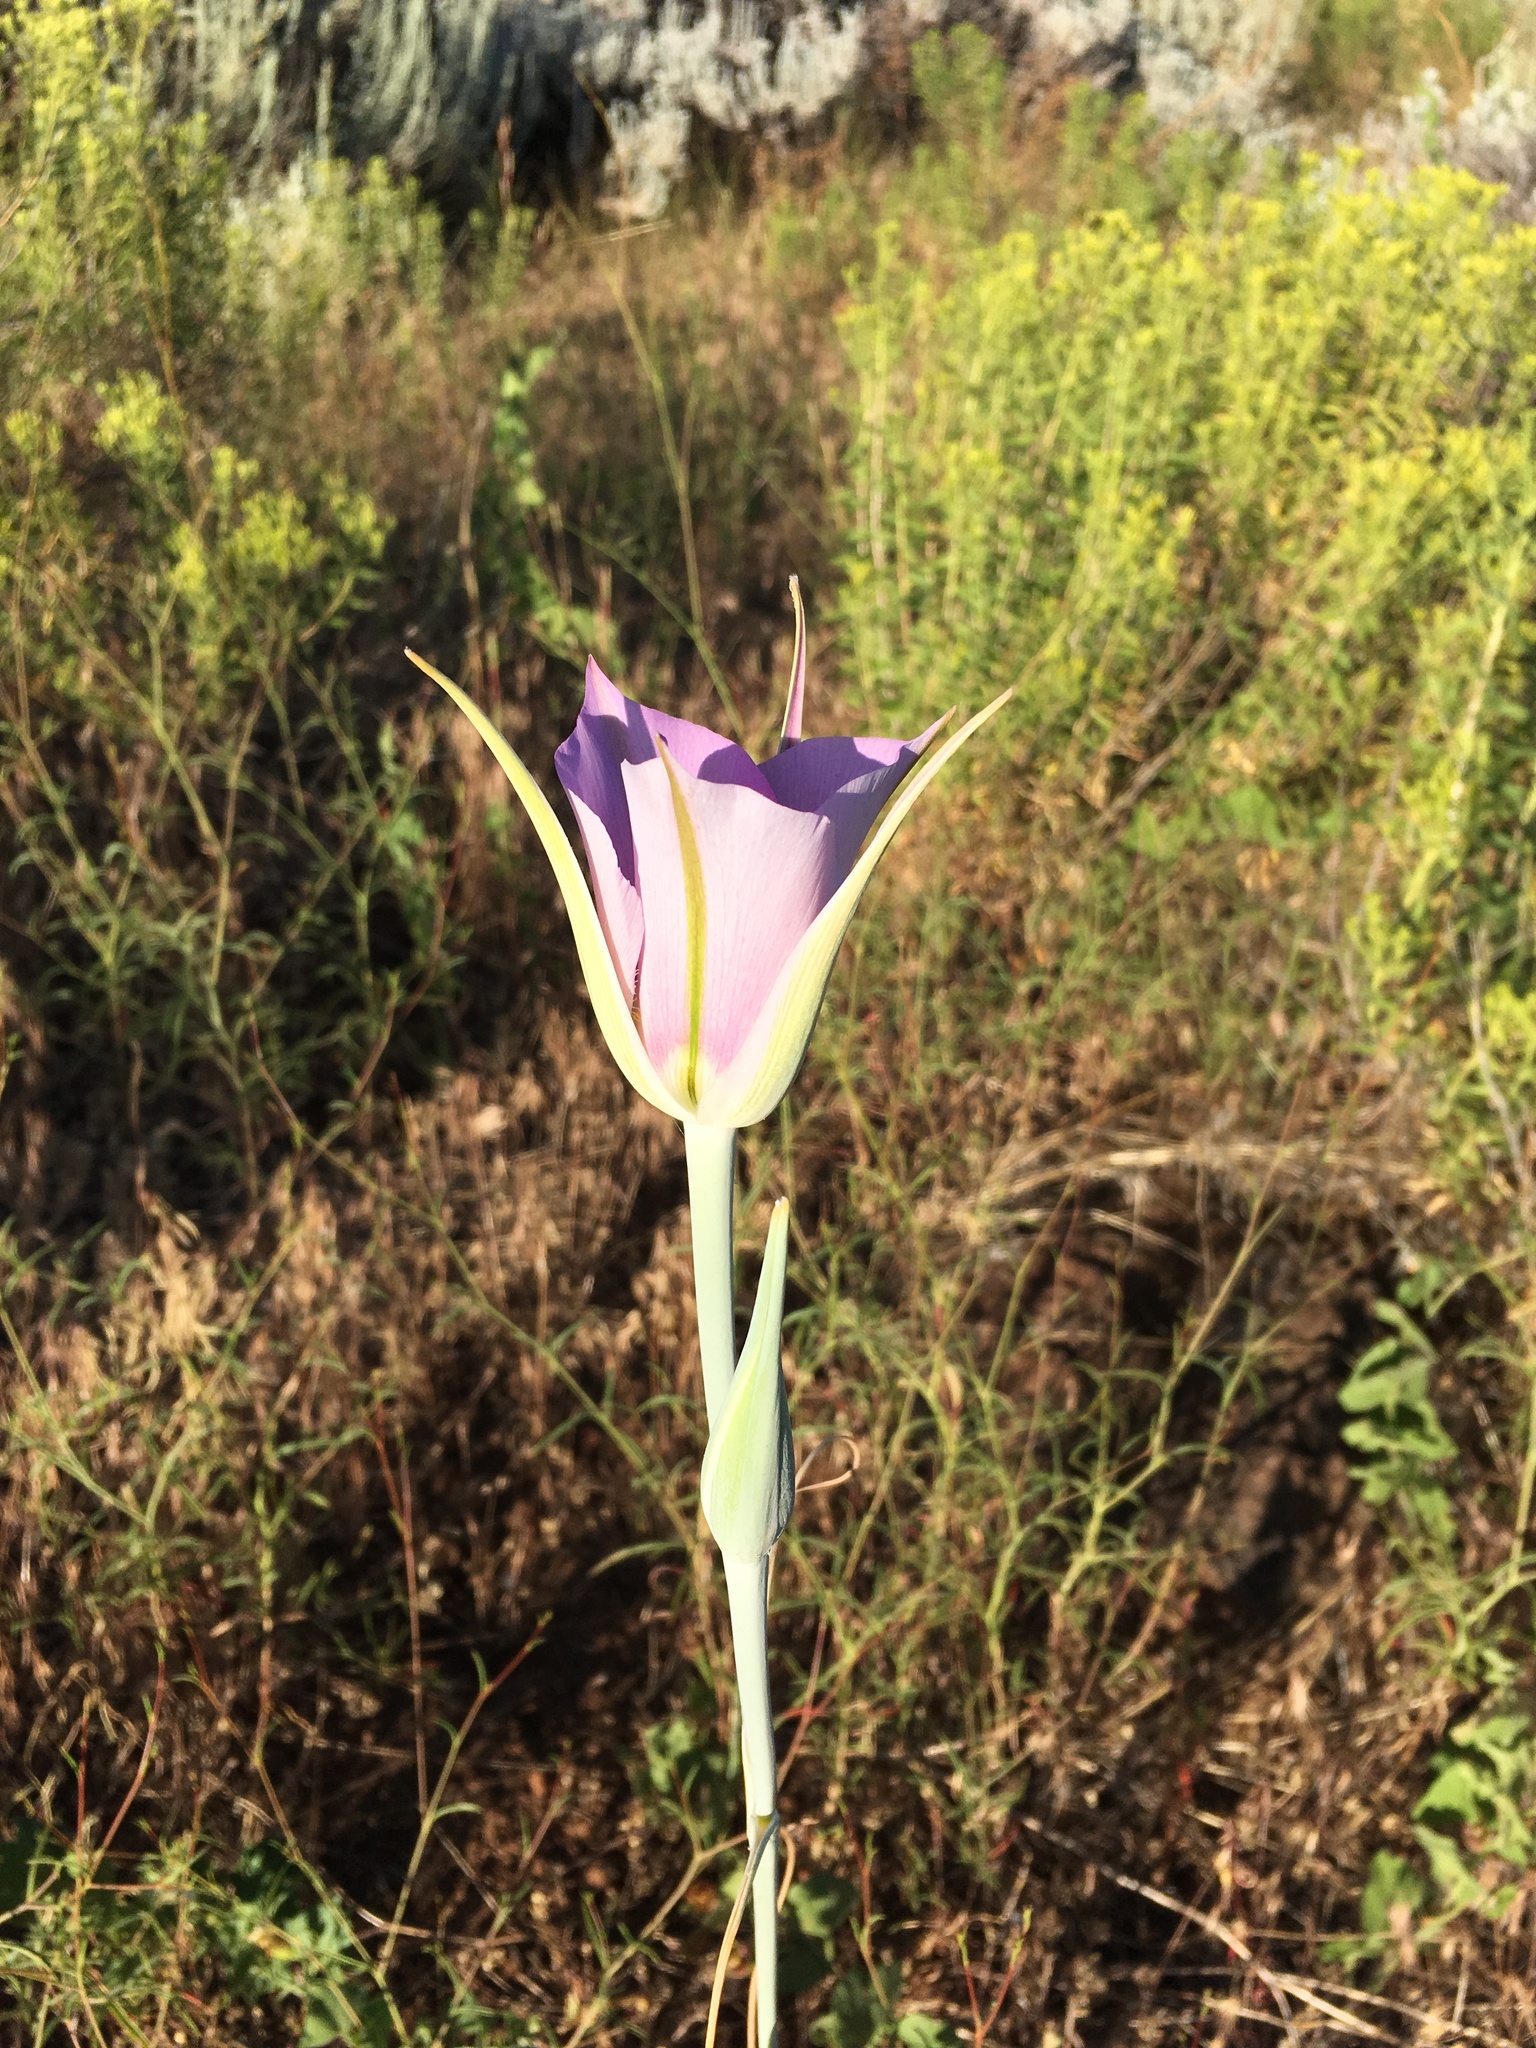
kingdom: Plantae
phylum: Tracheophyta
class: Liliopsida
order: Liliales
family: Liliaceae
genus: Calochortus
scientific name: Calochortus macrocarpus
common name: Green-band mariposa lily
